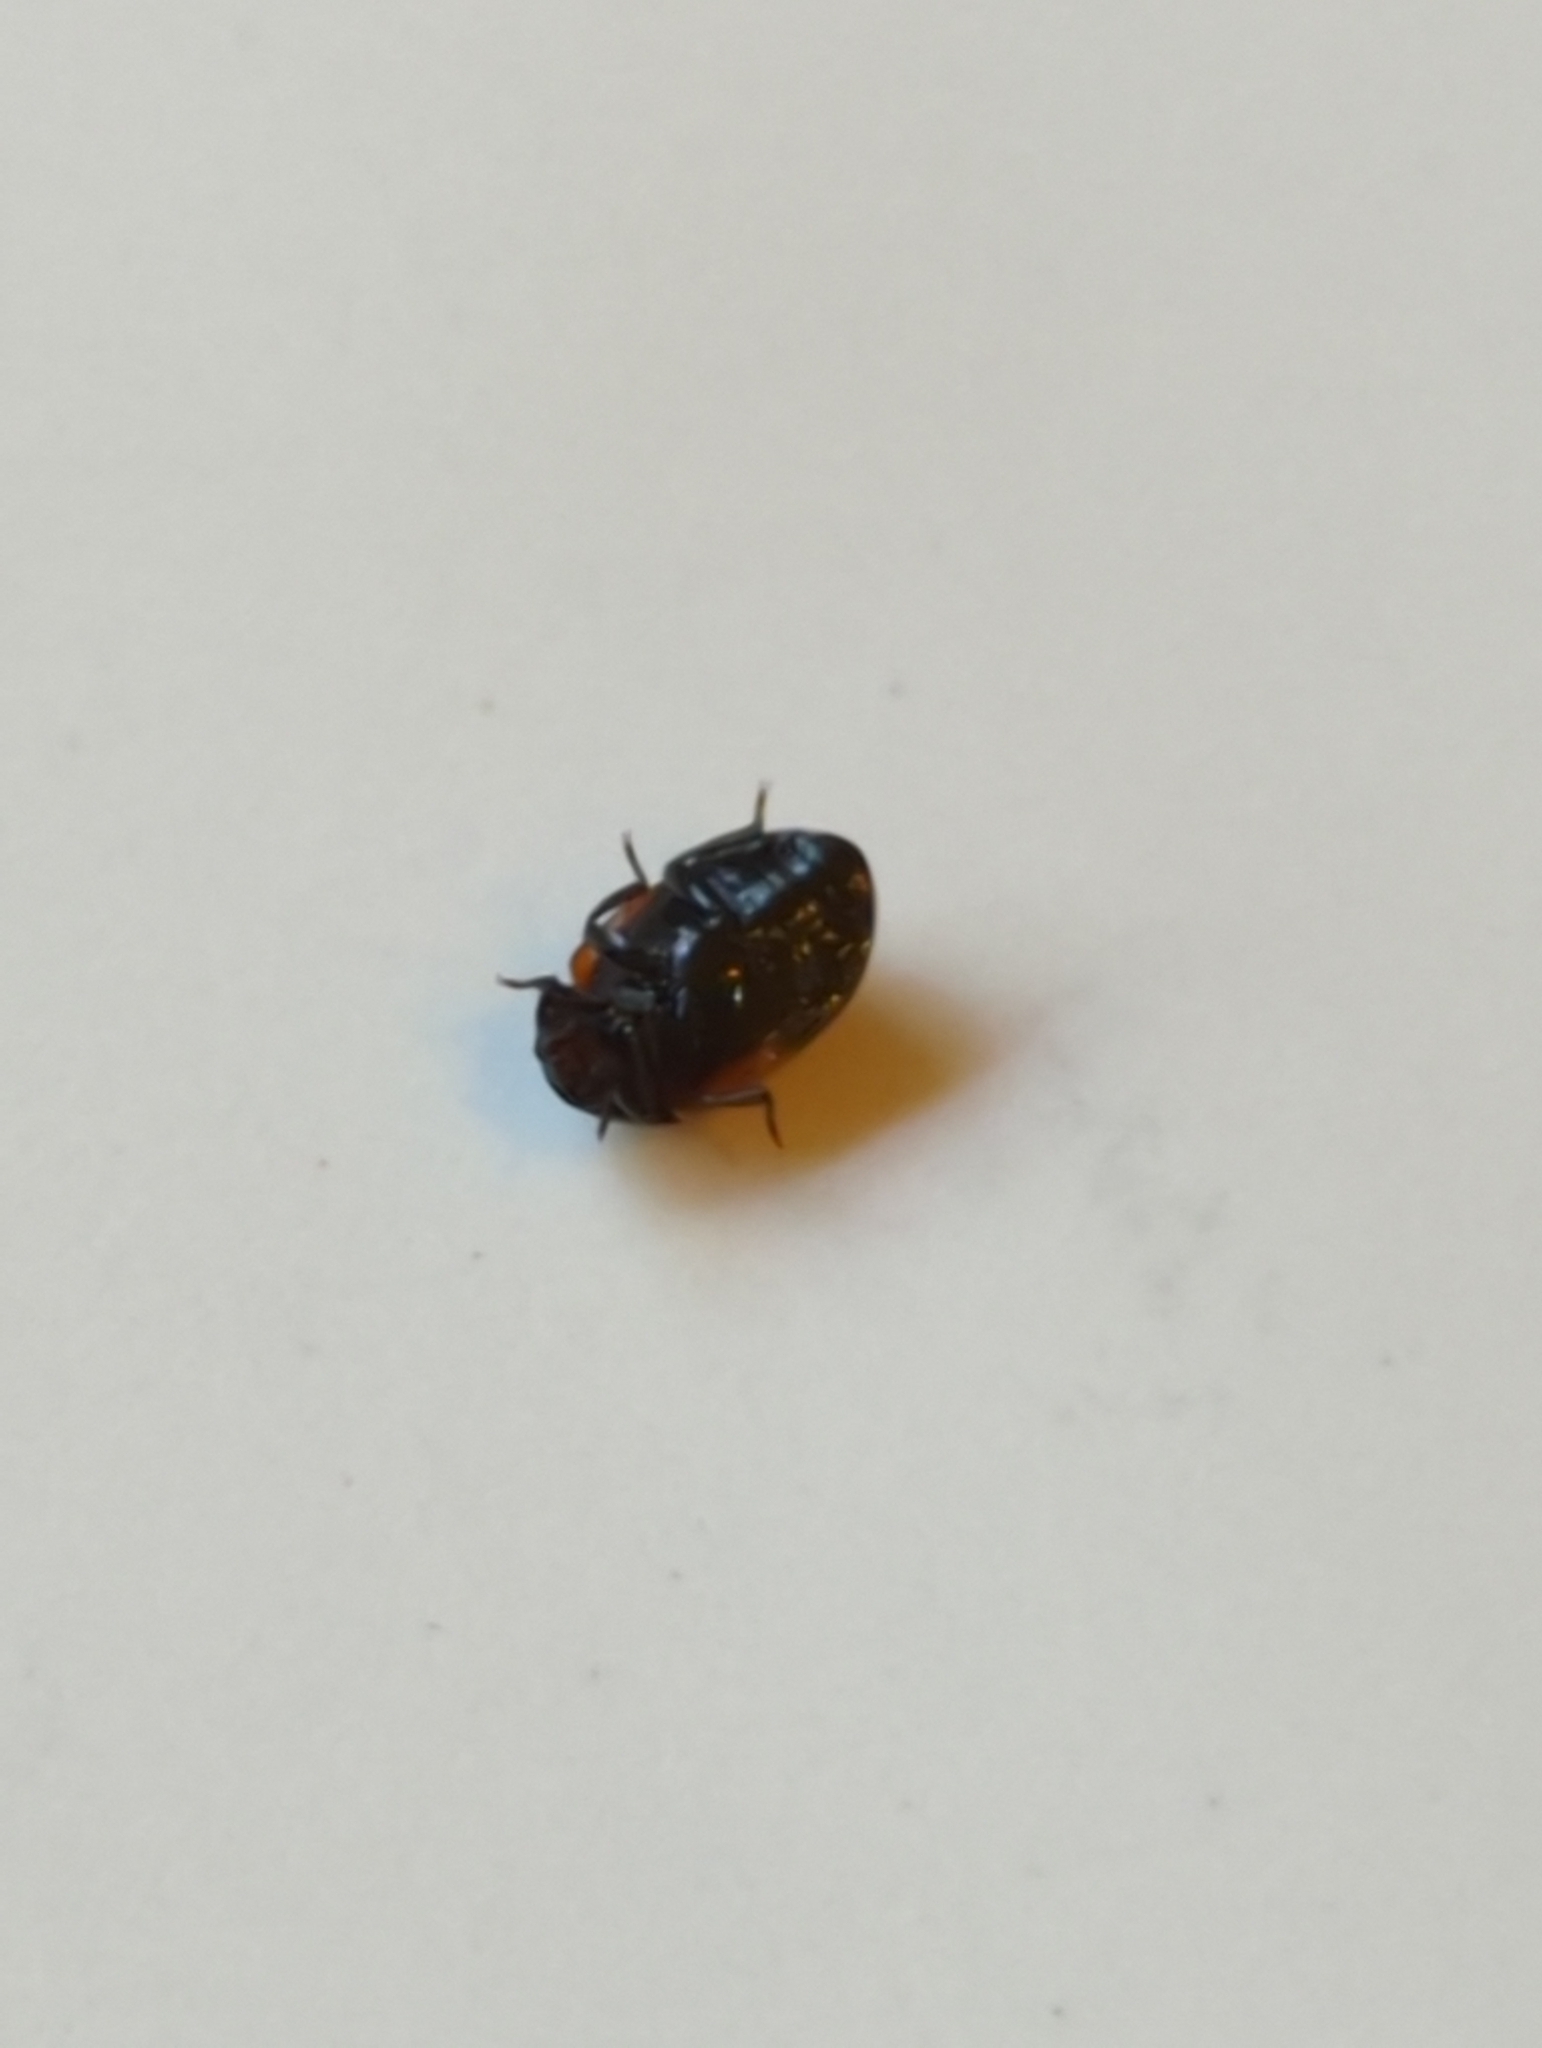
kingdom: Animalia
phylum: Arthropoda
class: Insecta
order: Coleoptera
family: Tenebrionidae
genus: Diaperis
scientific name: Diaperis maculata
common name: Darkling beetle
